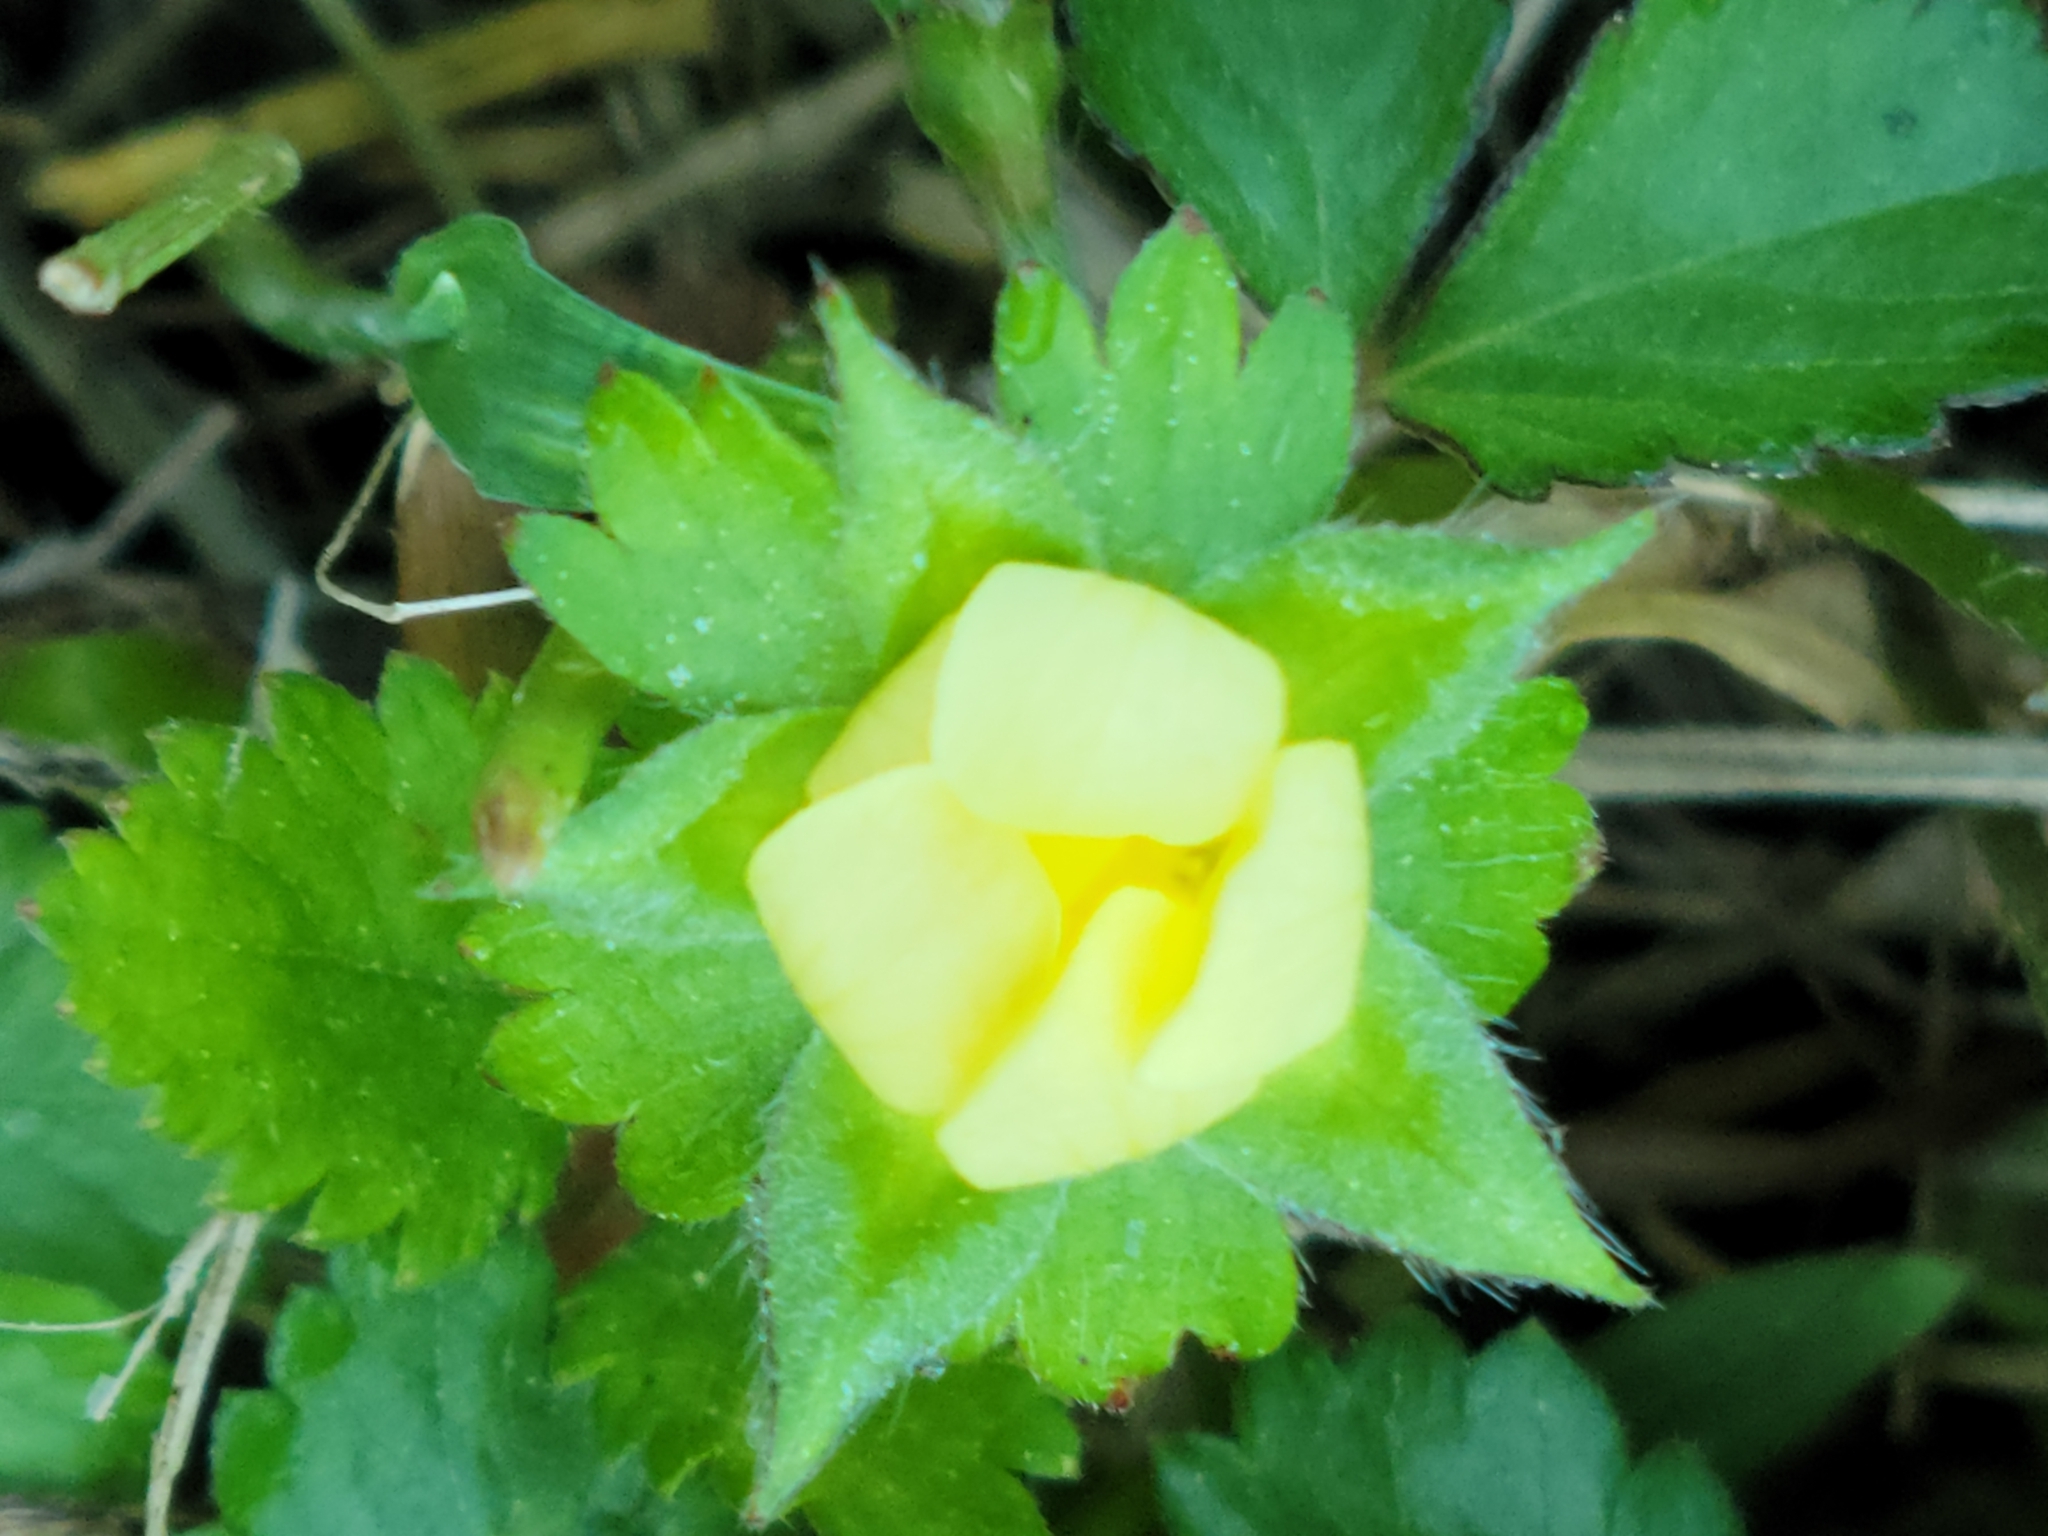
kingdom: Plantae
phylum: Tracheophyta
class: Magnoliopsida
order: Rosales
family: Rosaceae
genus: Potentilla
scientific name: Potentilla indica
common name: Yellow-flowered strawberry
